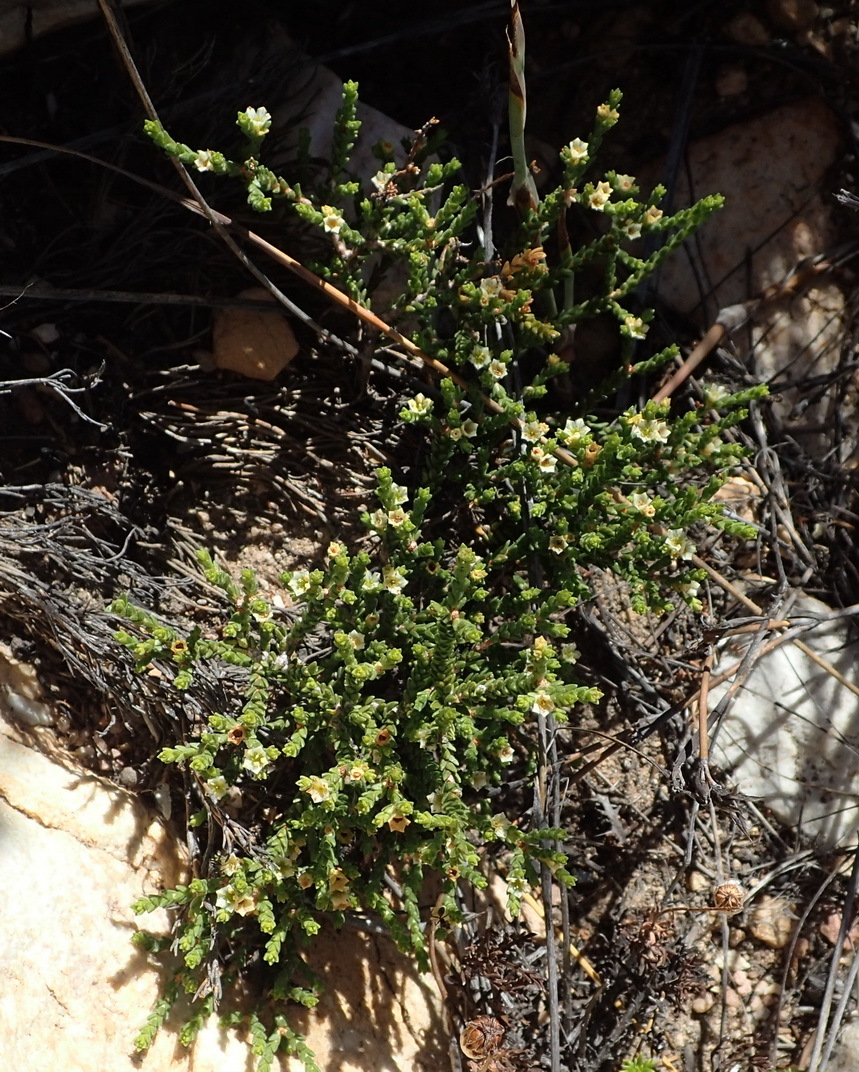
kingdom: Plantae
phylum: Tracheophyta
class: Magnoliopsida
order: Sapindales
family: Rutaceae
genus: Diosma
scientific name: Diosma apetala
